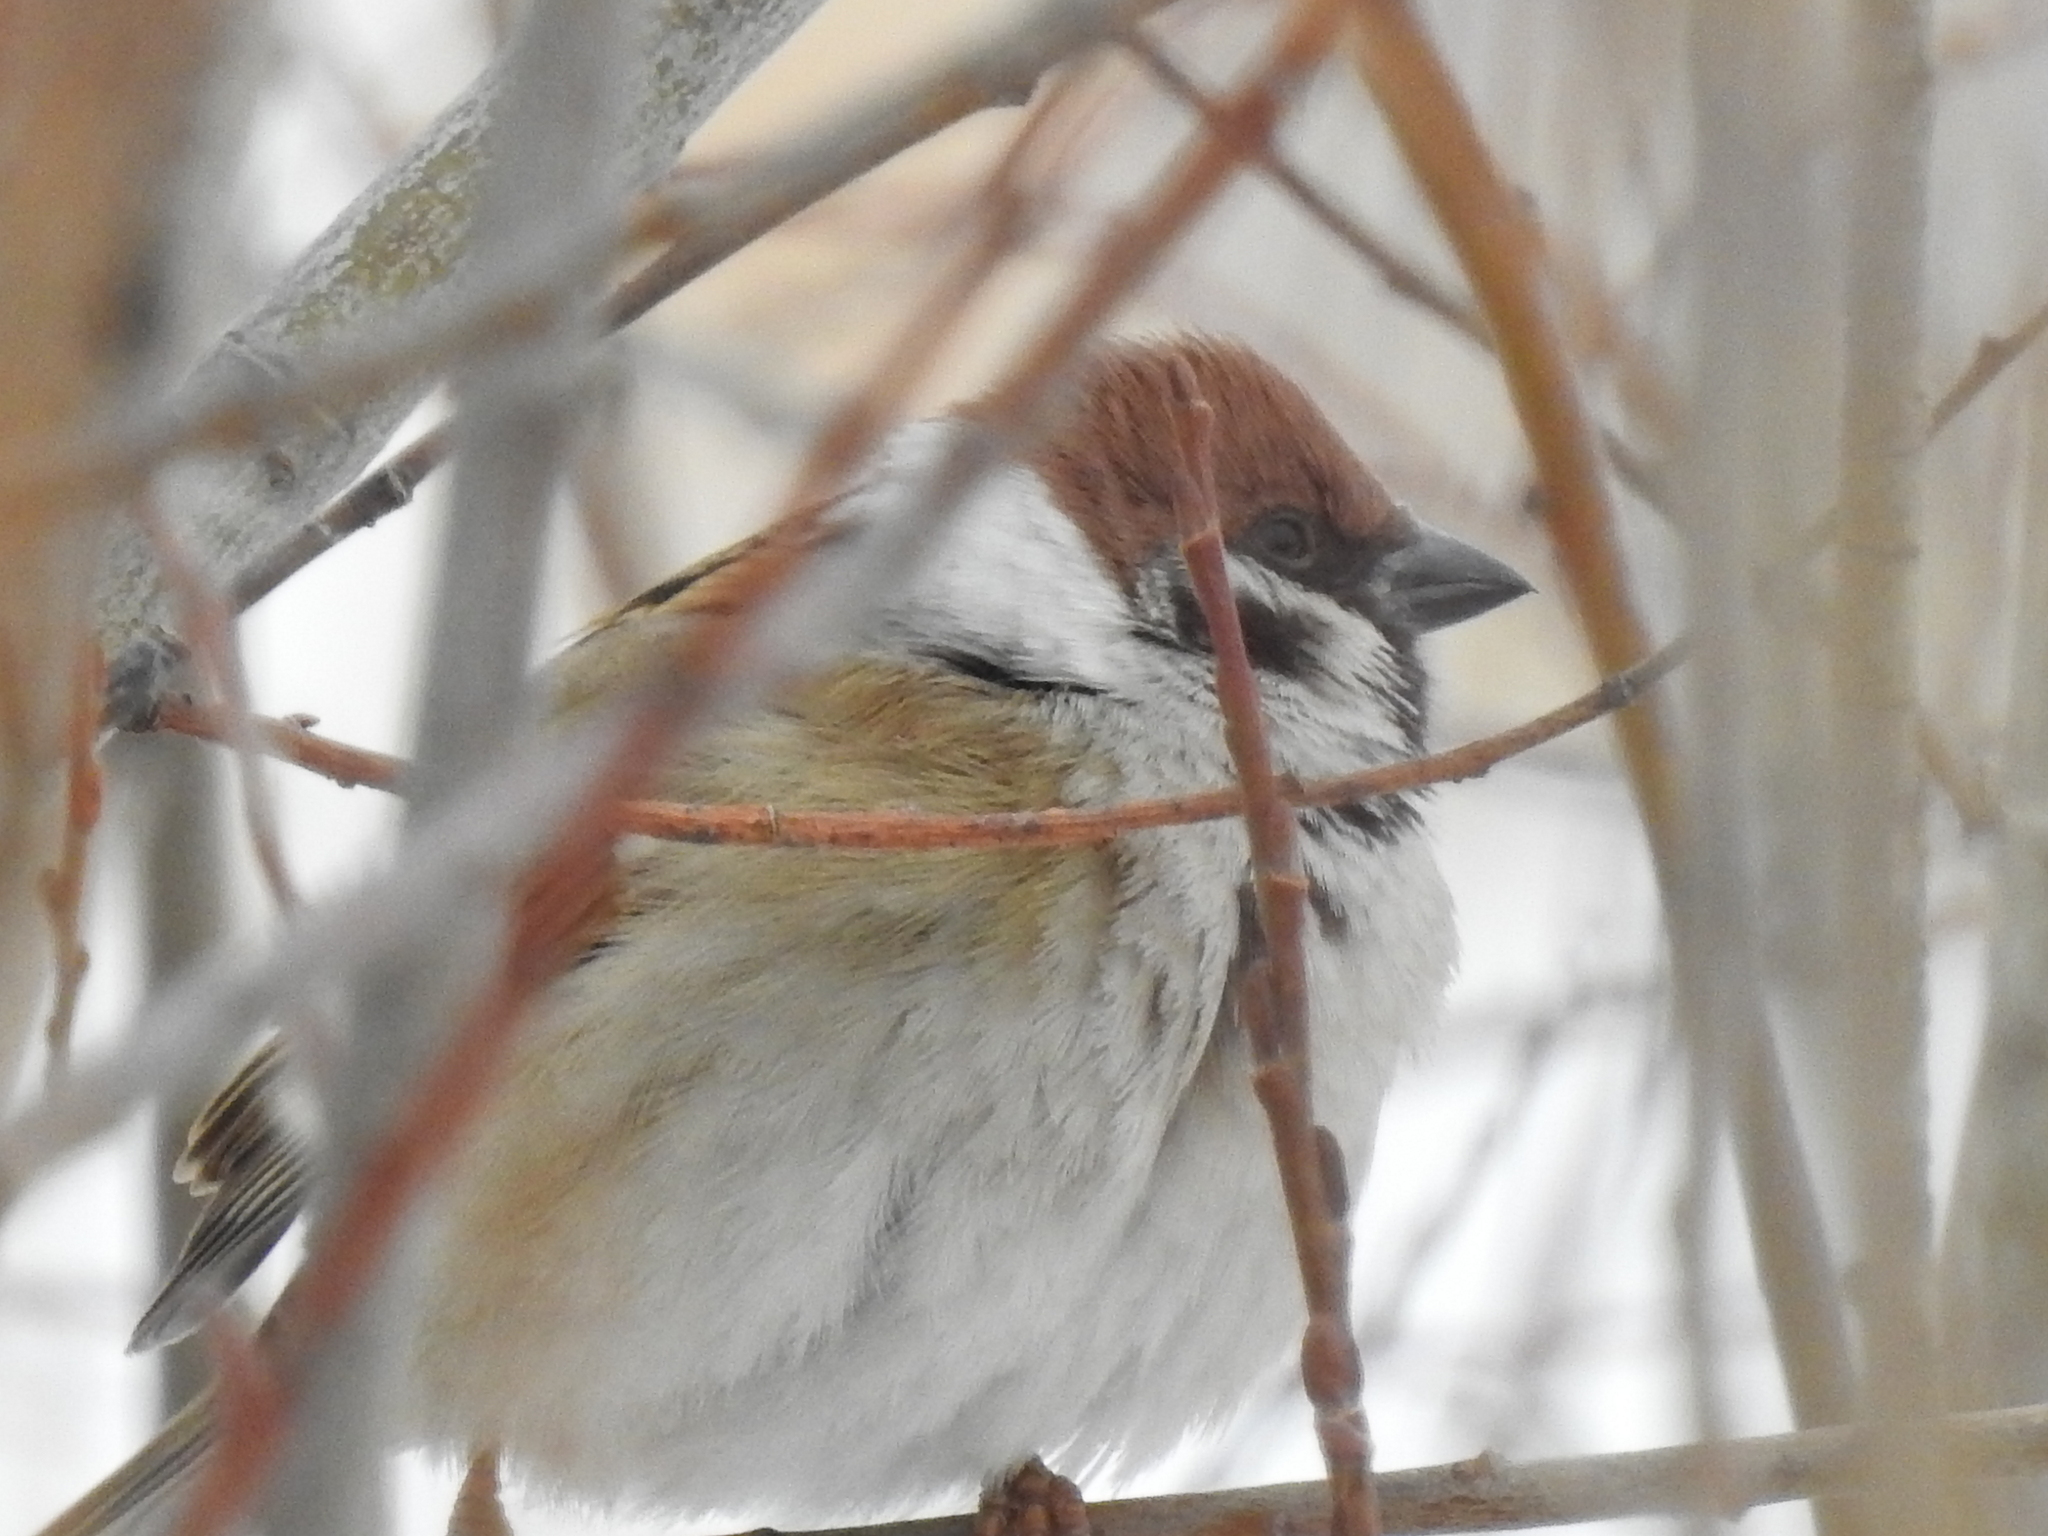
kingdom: Animalia
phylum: Chordata
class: Aves
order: Passeriformes
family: Passeridae
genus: Passer
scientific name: Passer montanus
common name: Eurasian tree sparrow
